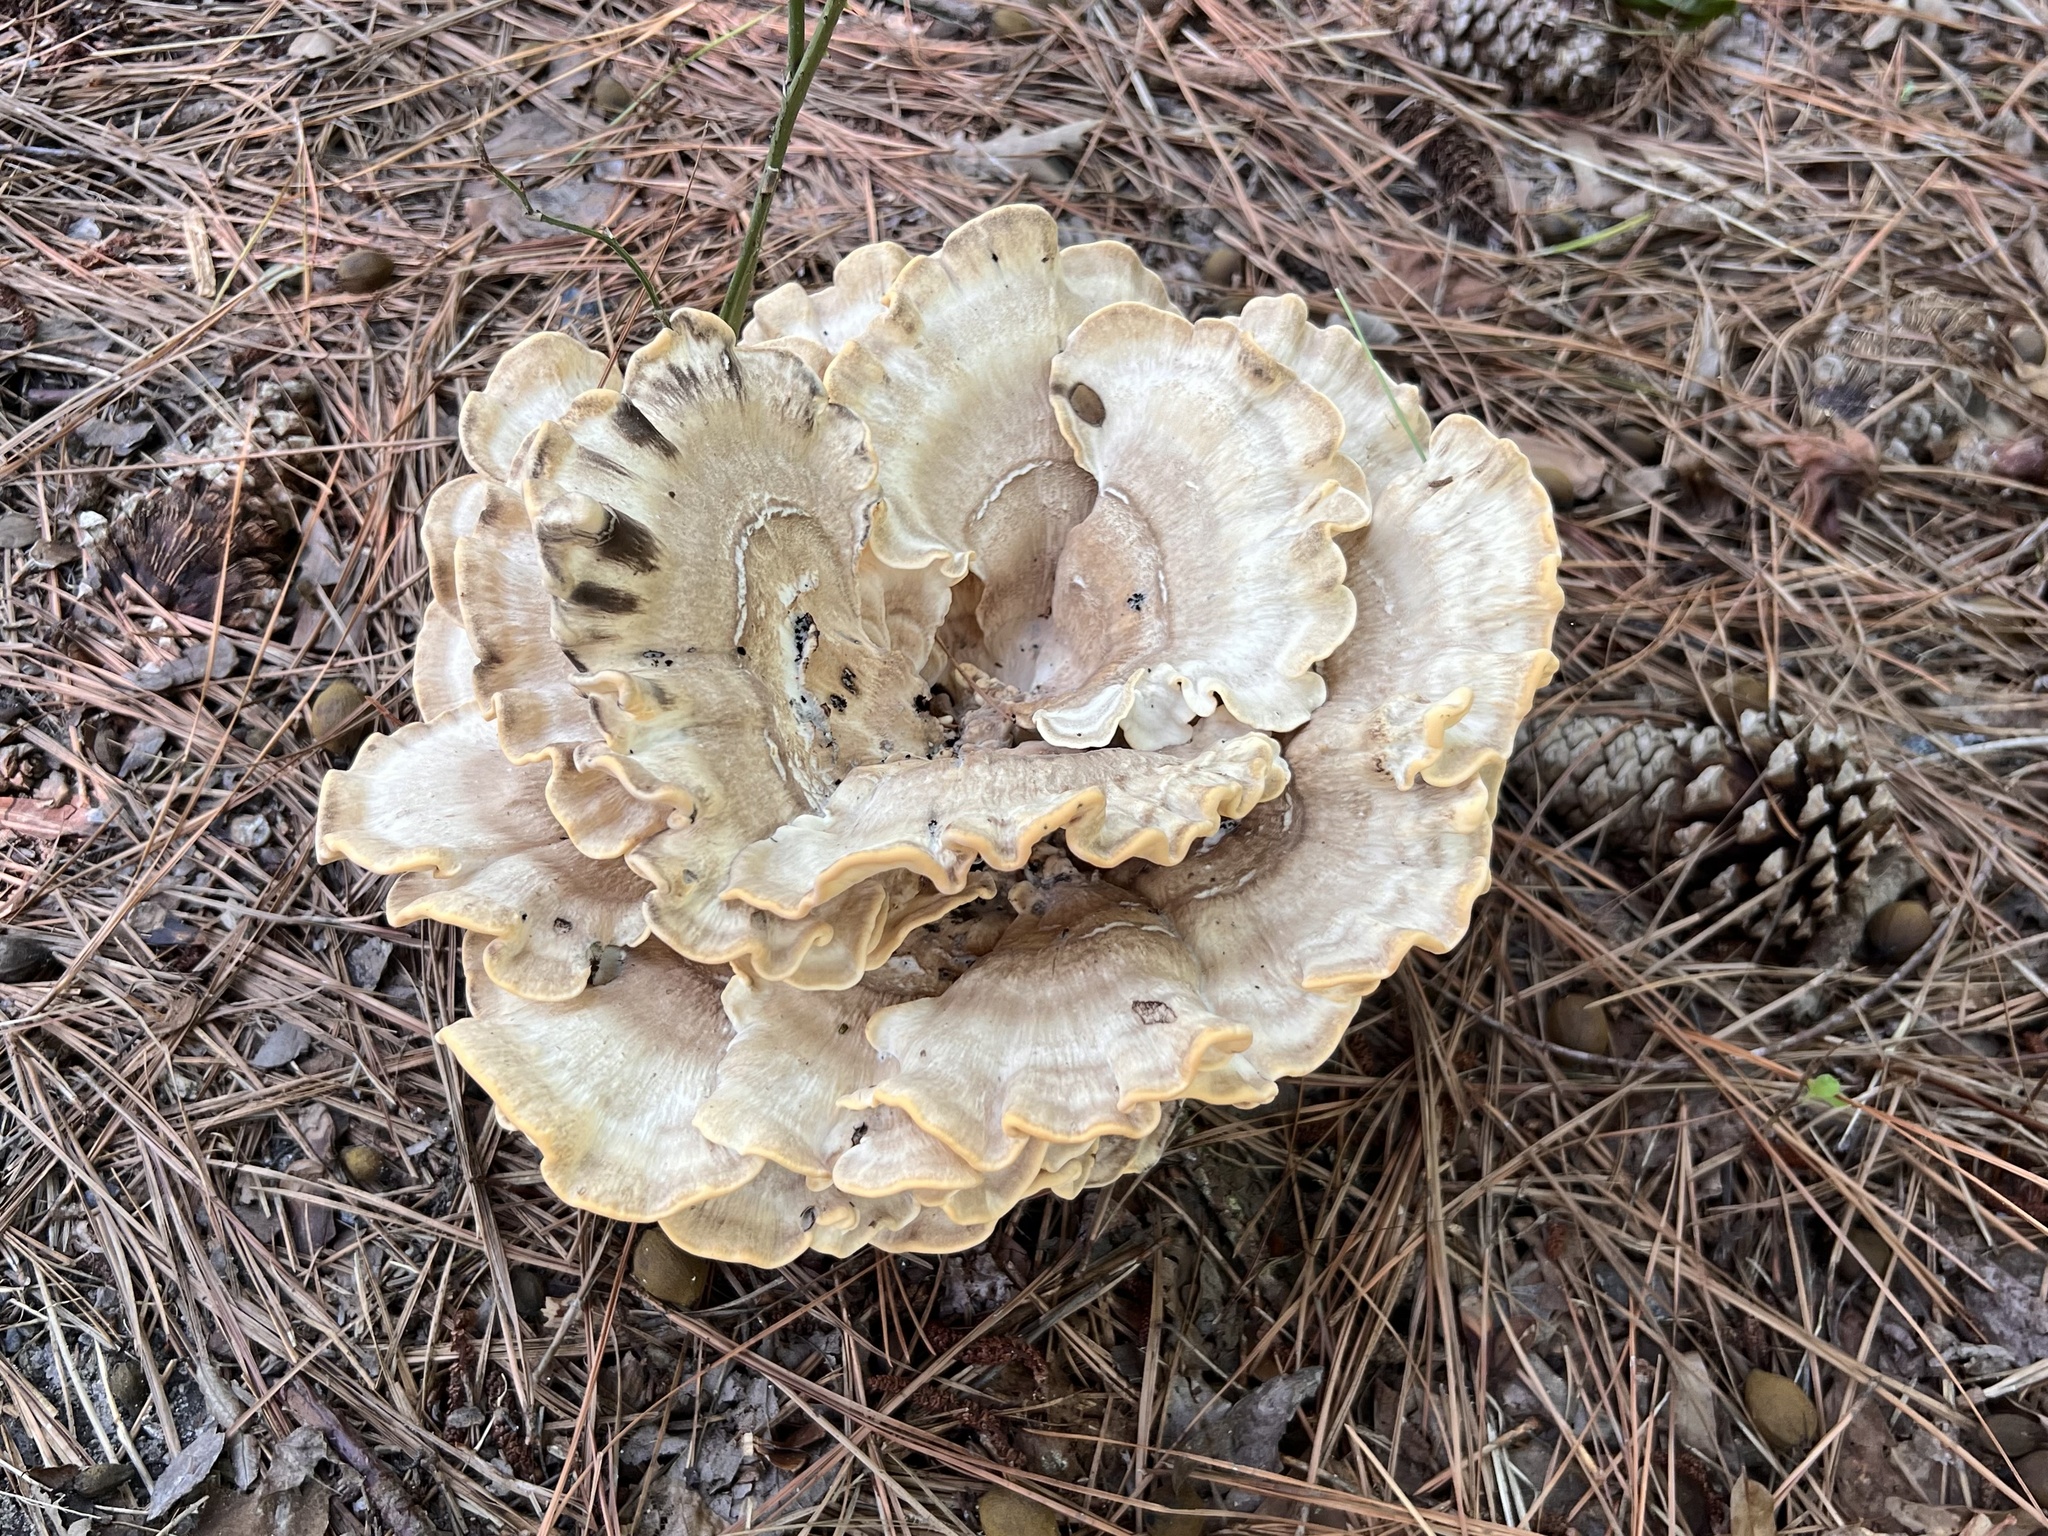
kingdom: Fungi
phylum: Basidiomycota
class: Agaricomycetes
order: Polyporales
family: Meripilaceae
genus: Meripilus
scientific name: Meripilus sumstinei
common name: Black-staining polypore
